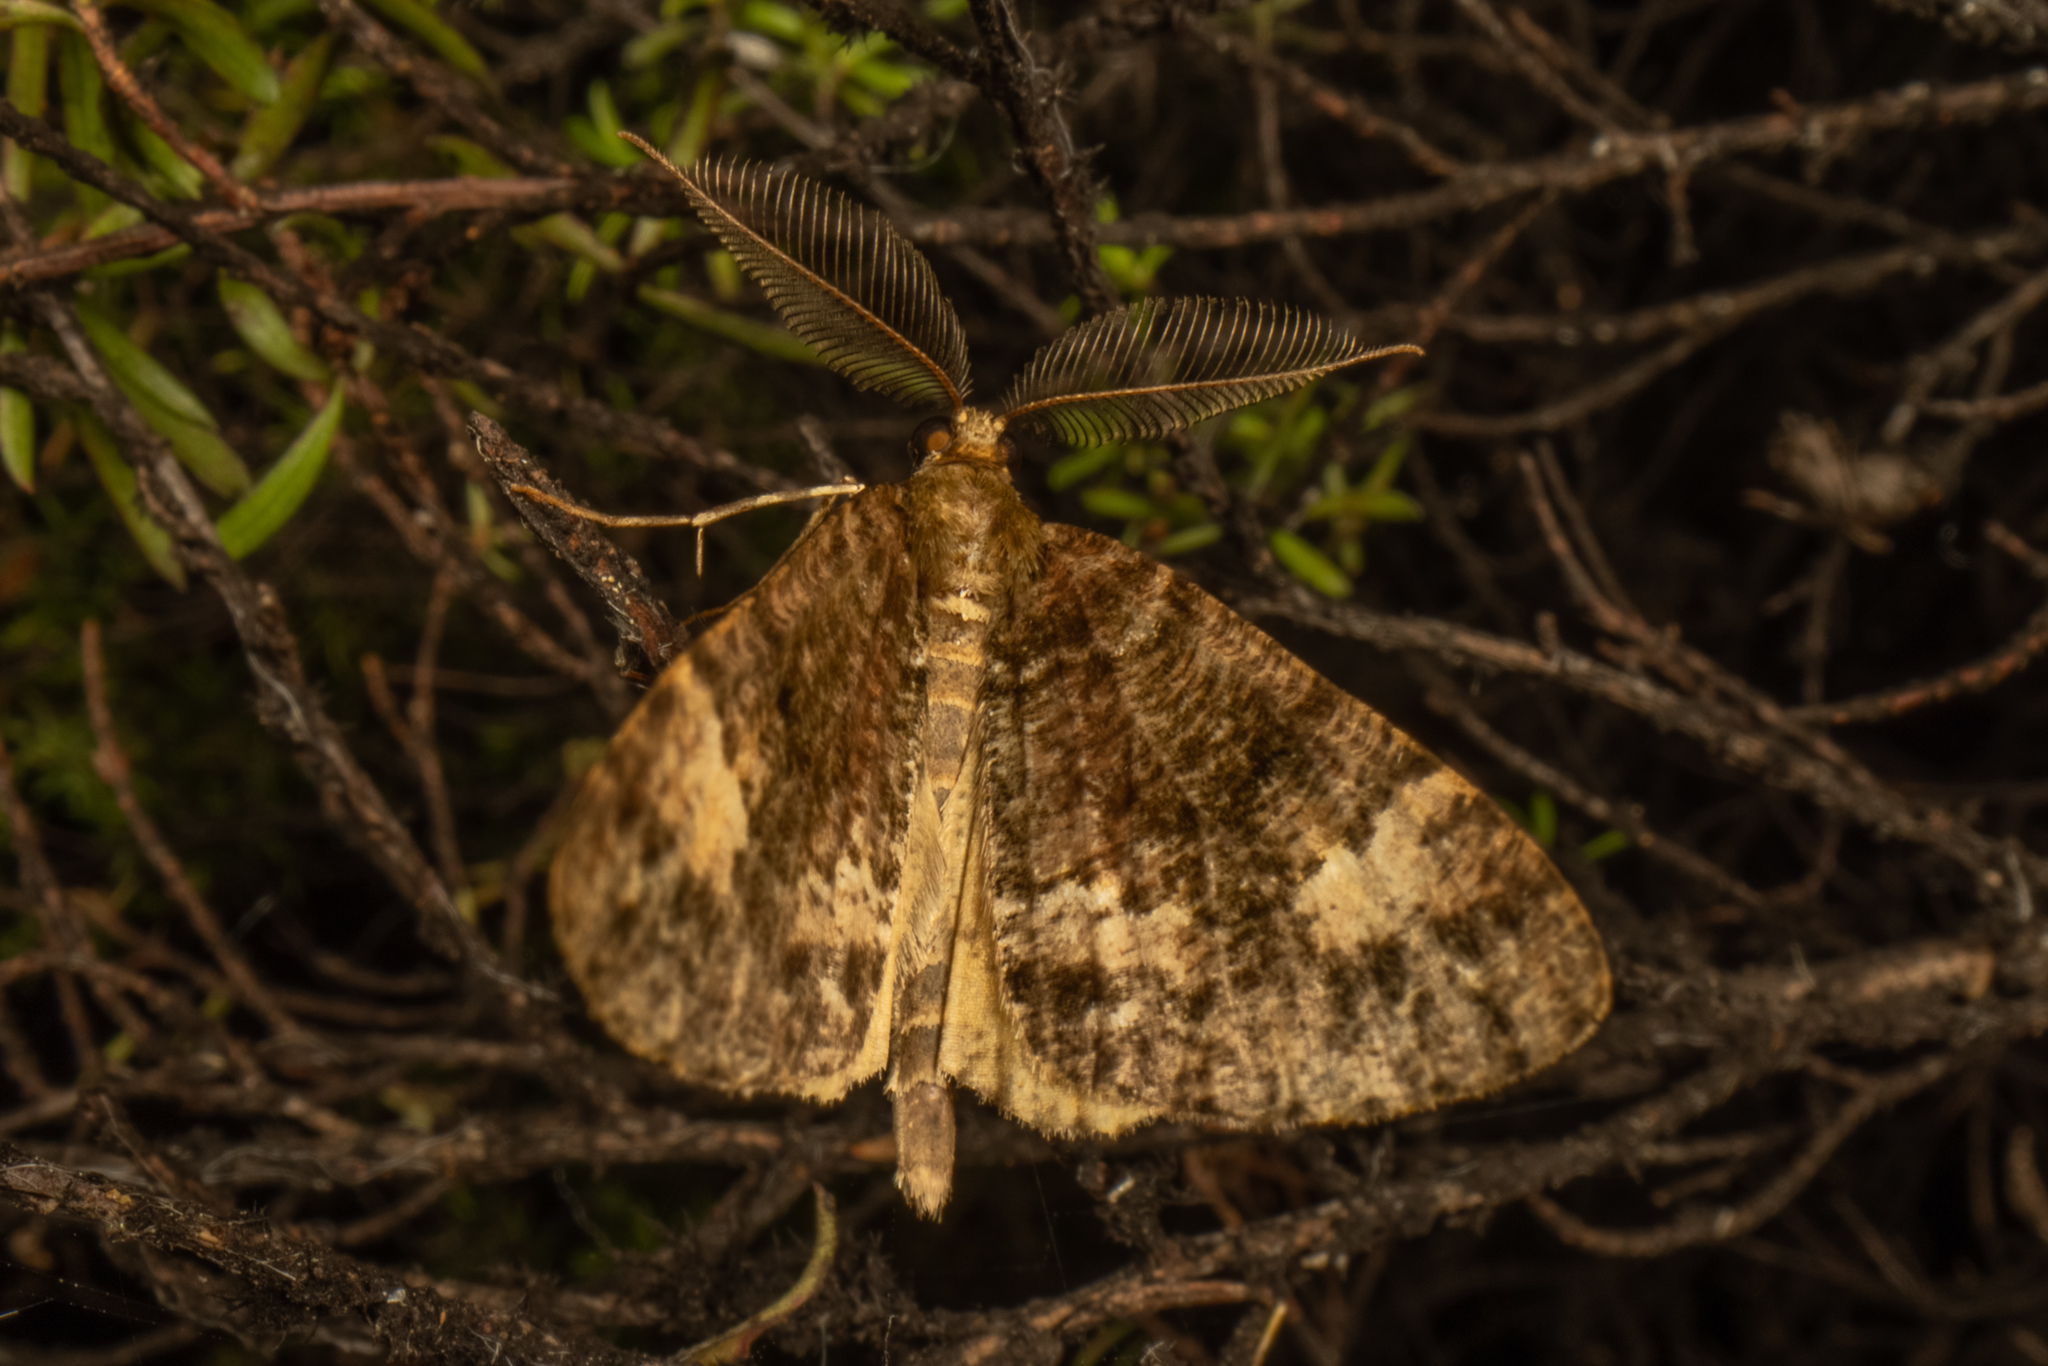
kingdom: Animalia
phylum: Arthropoda
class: Insecta
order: Lepidoptera
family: Geometridae
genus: Pseudocoremia
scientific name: Pseudocoremia productata
